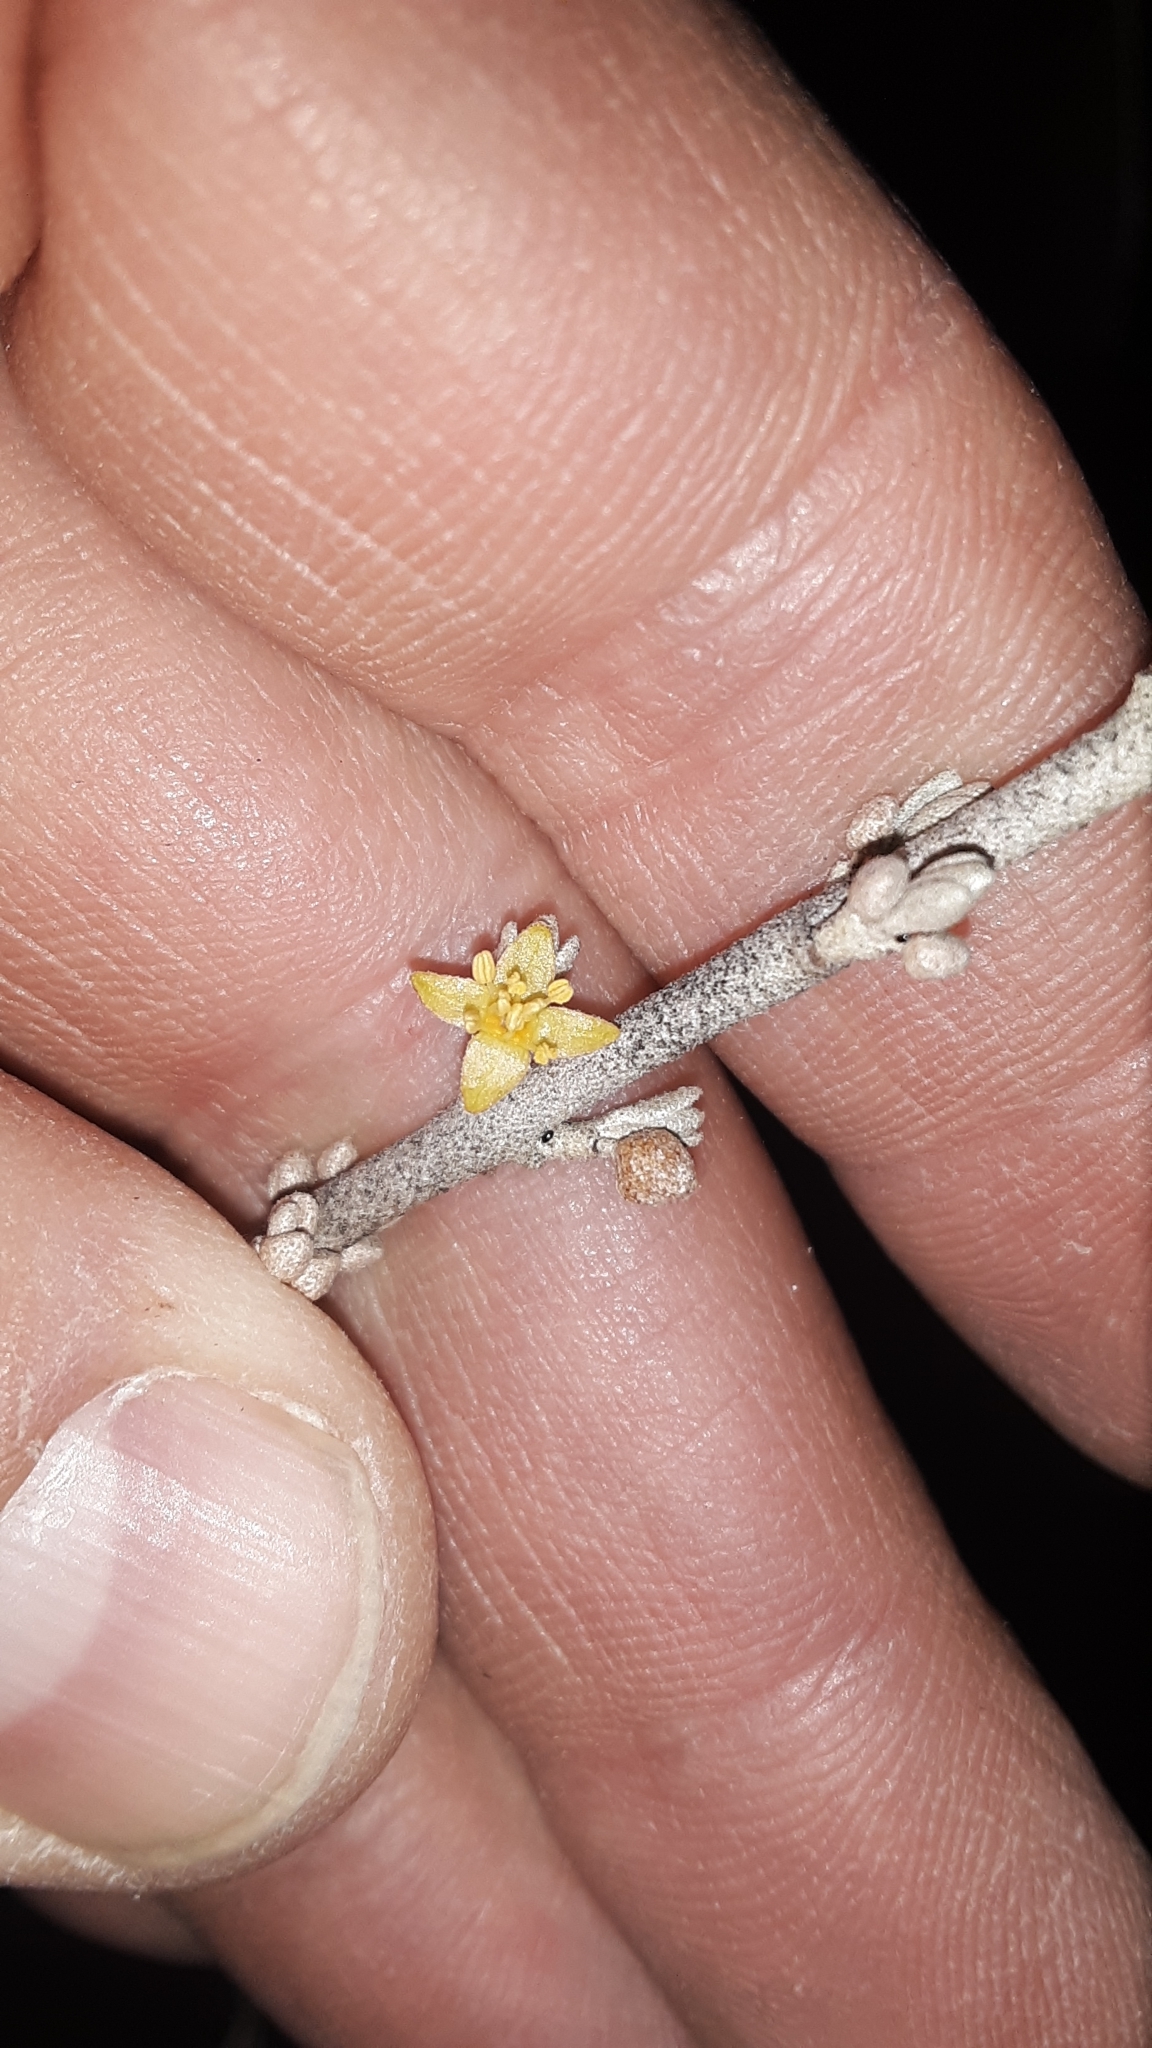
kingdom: Plantae
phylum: Tracheophyta
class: Magnoliopsida
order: Rosales
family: Elaeagnaceae
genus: Shepherdia
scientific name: Shepherdia argentea
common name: Silver buffaloberry
